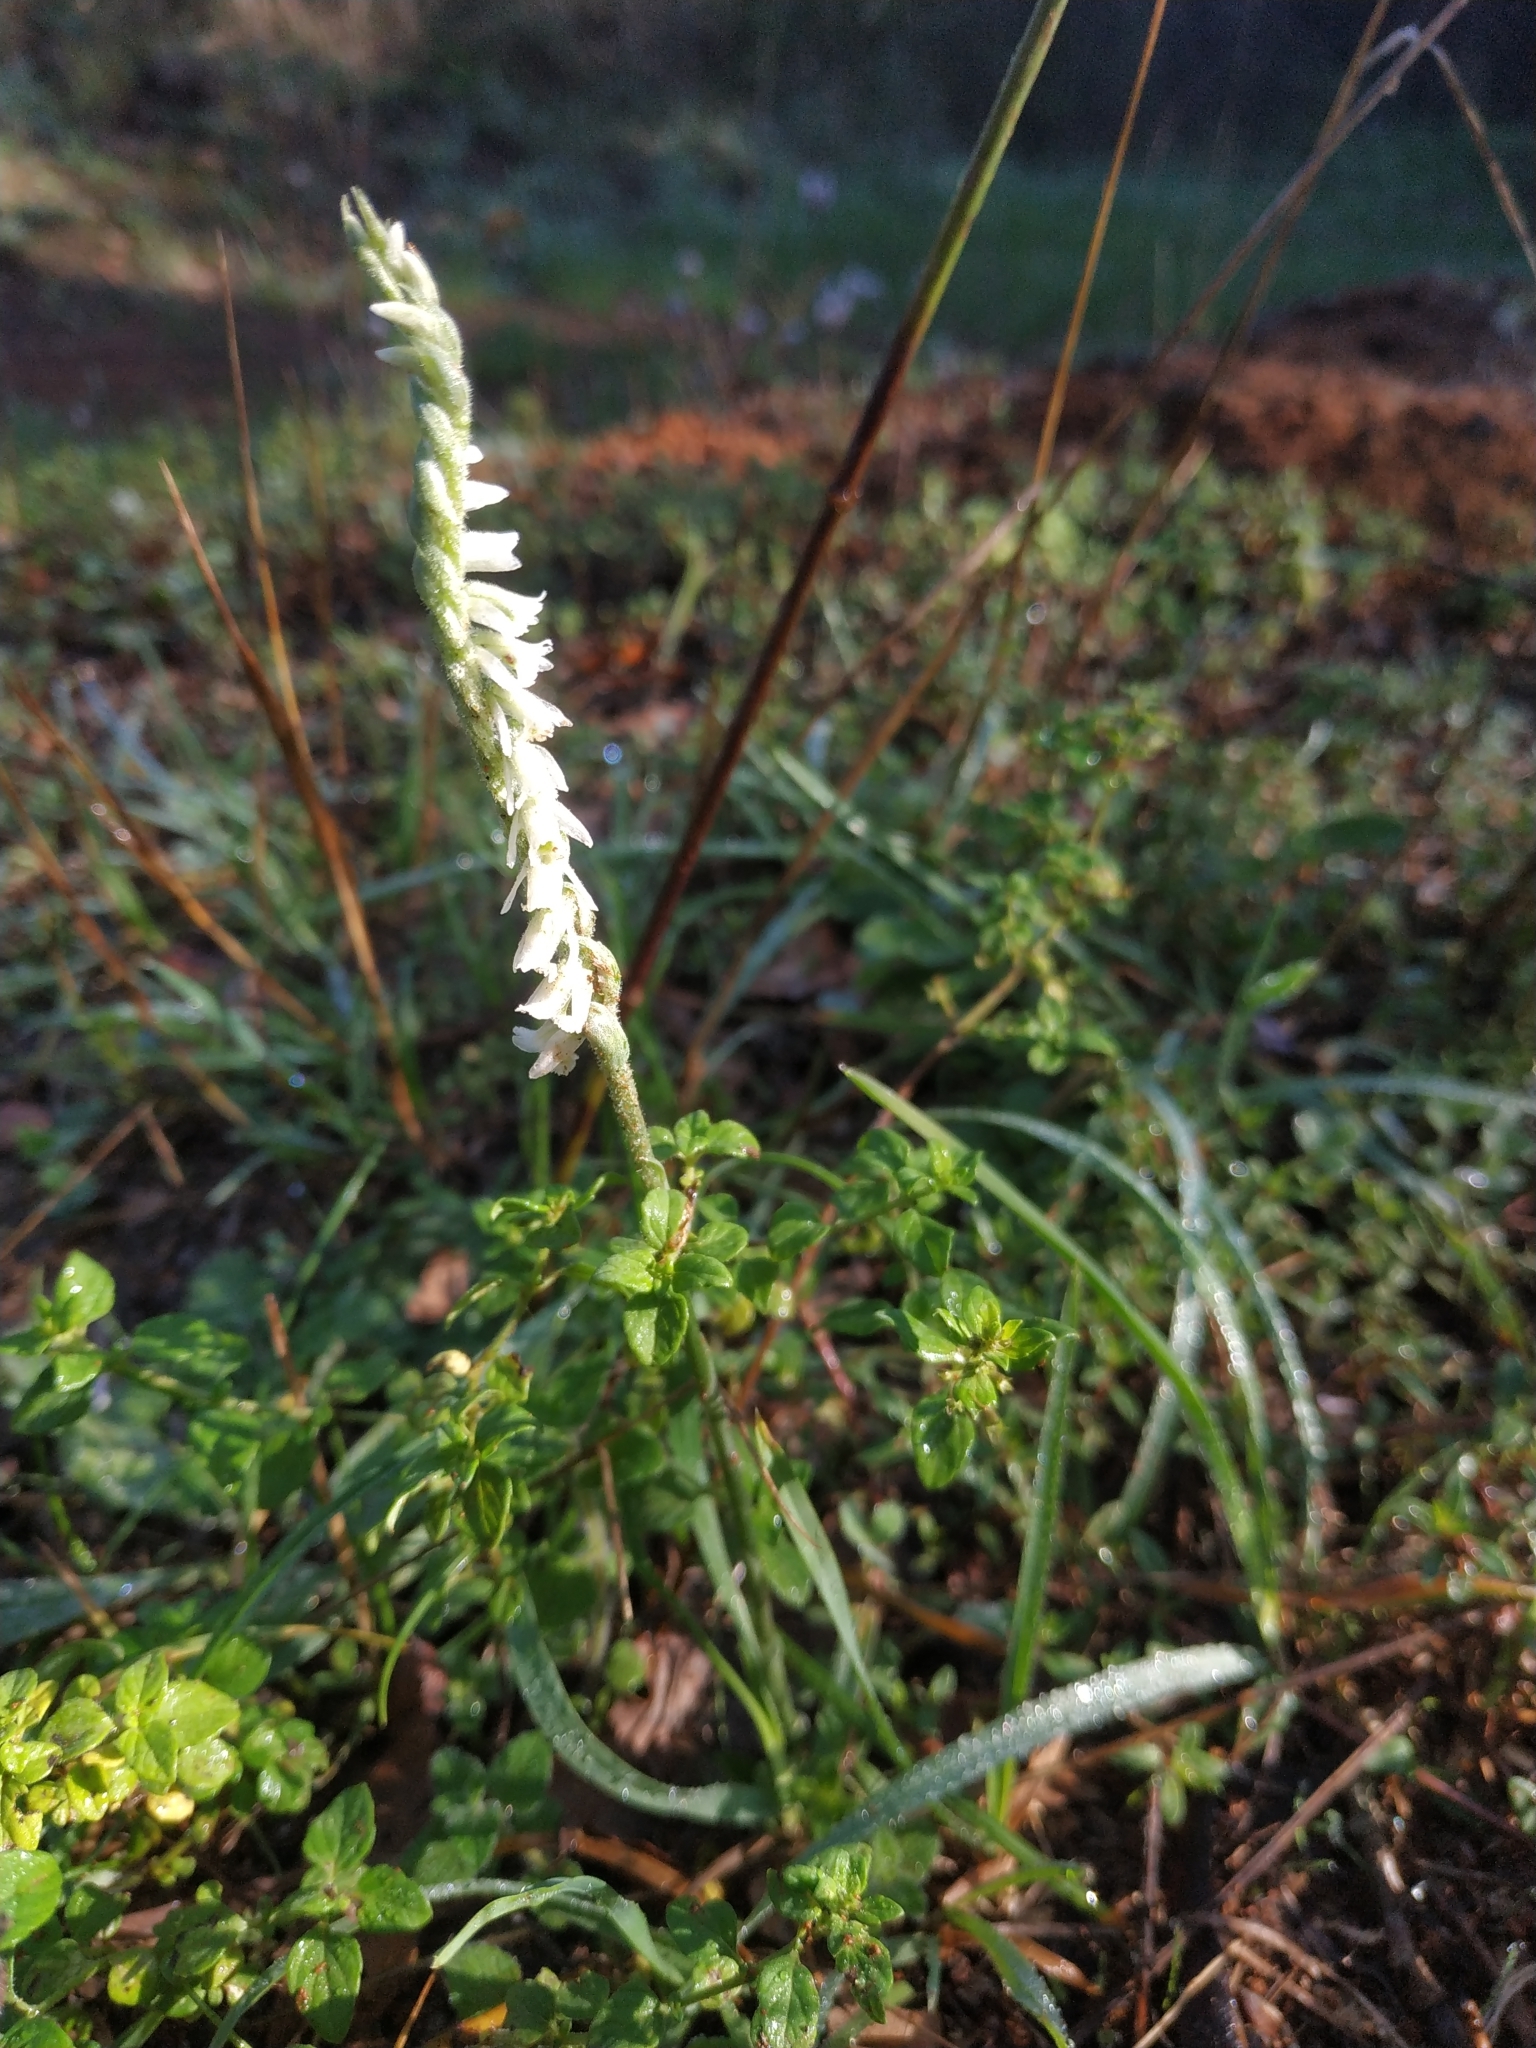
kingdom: Plantae
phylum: Tracheophyta
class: Liliopsida
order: Asparagales
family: Orchidaceae
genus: Spiranthes
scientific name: Spiranthes spiralis
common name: Autumn lady's-tresses
